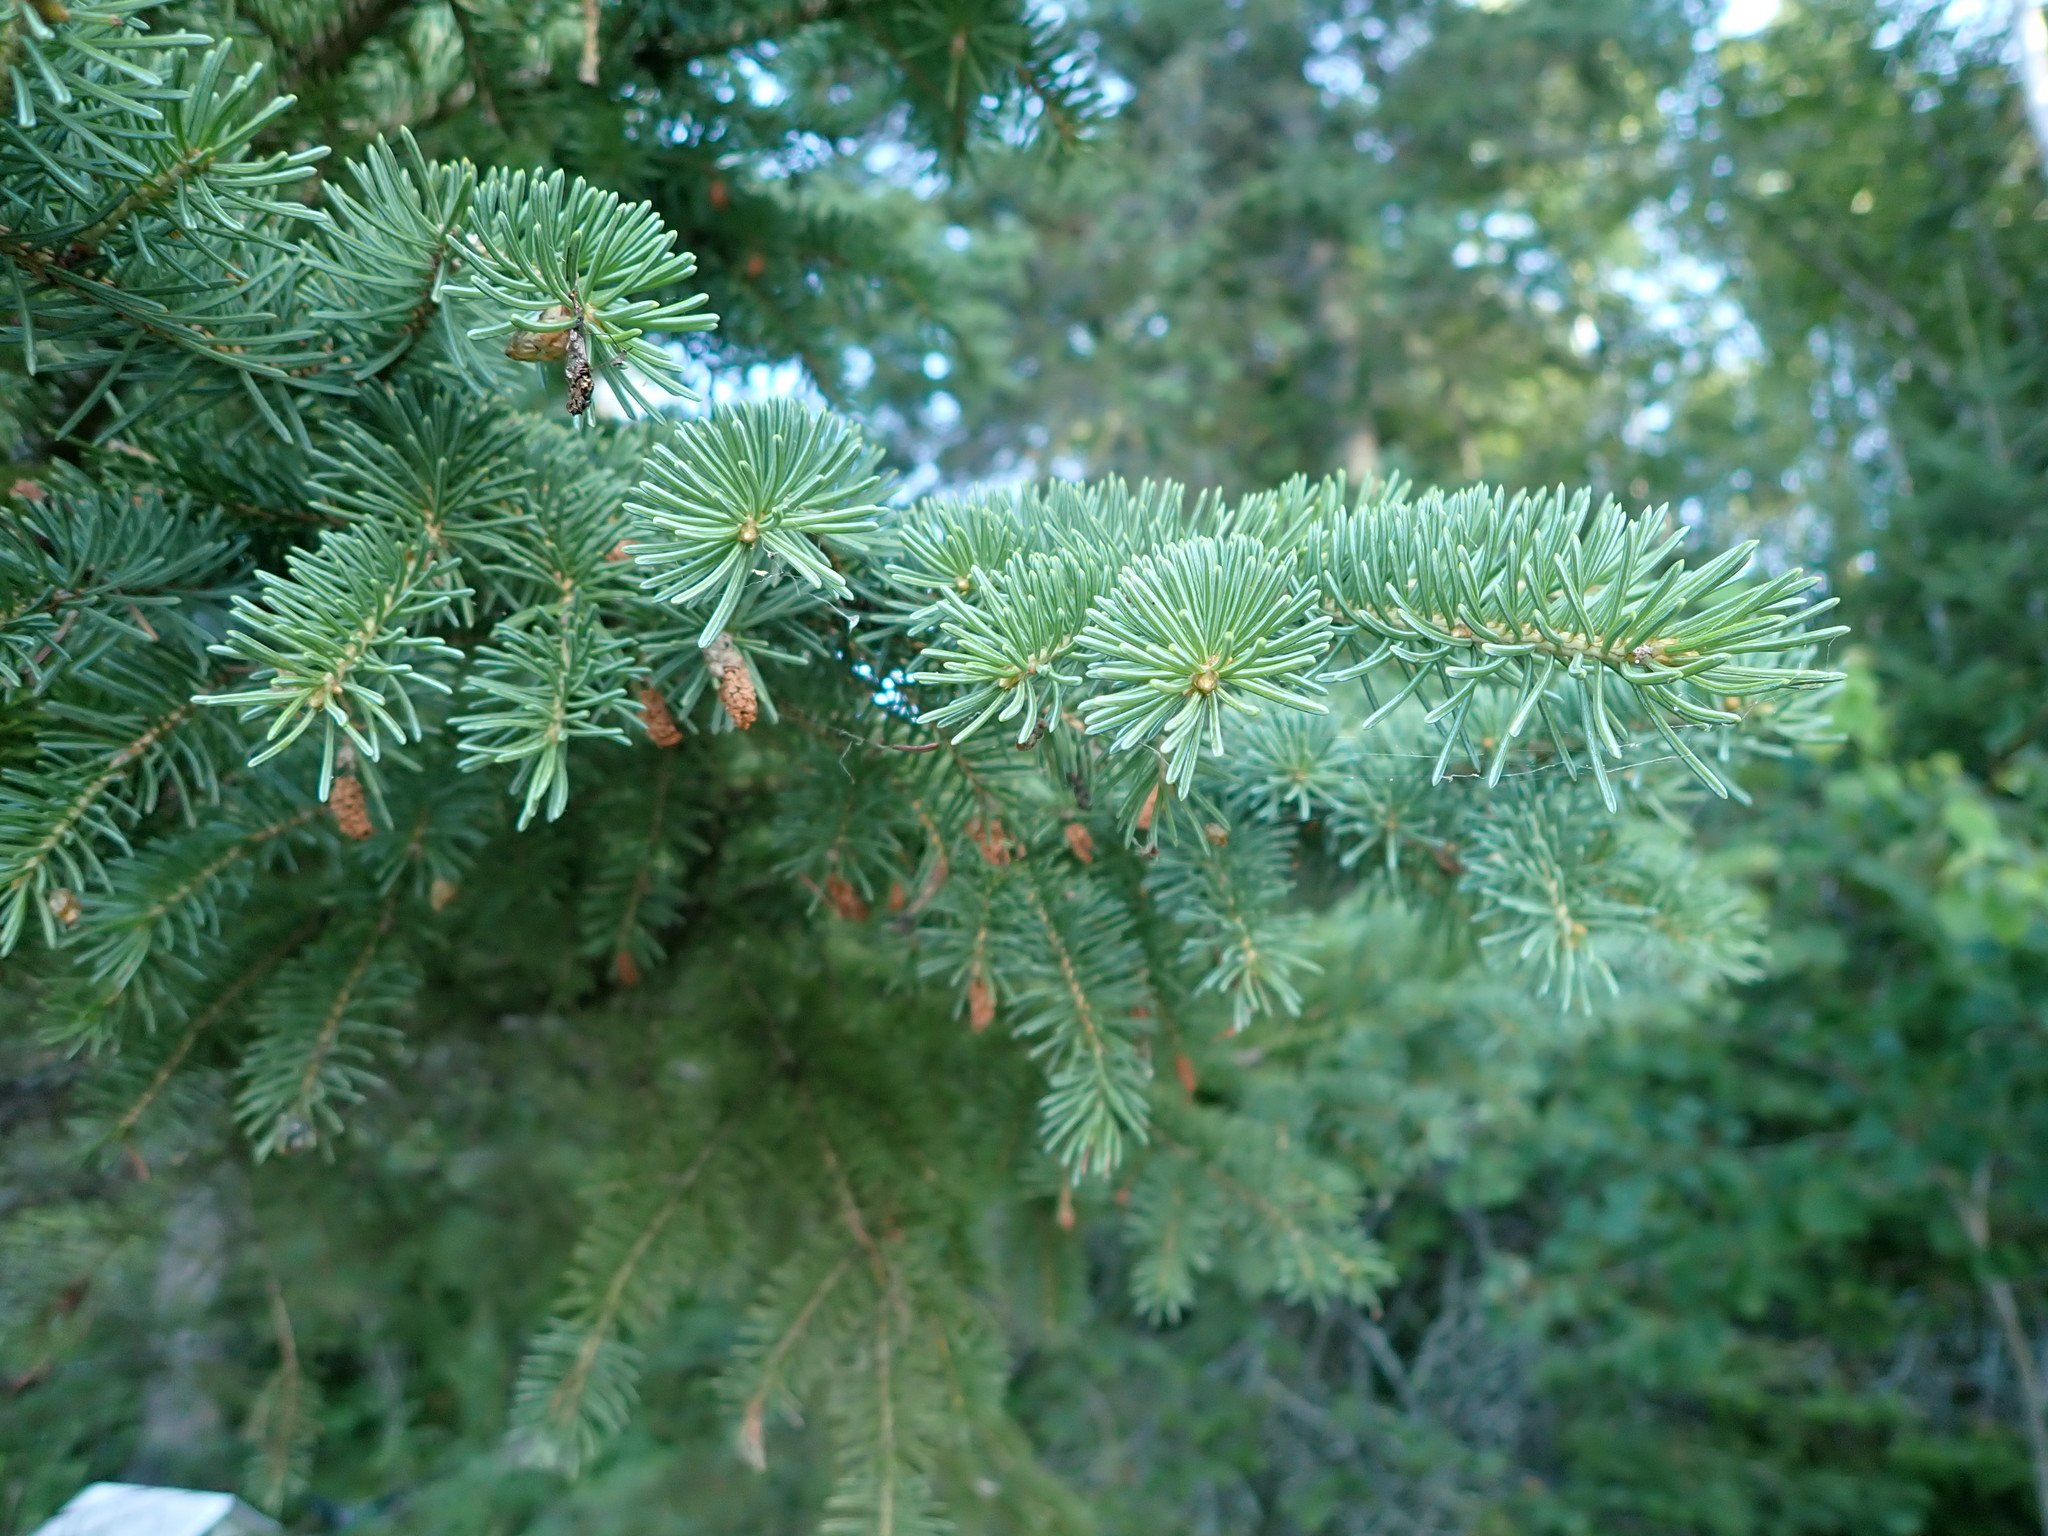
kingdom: Plantae
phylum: Tracheophyta
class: Pinopsida
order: Pinales
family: Pinaceae
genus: Picea
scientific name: Picea glauca
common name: White spruce
